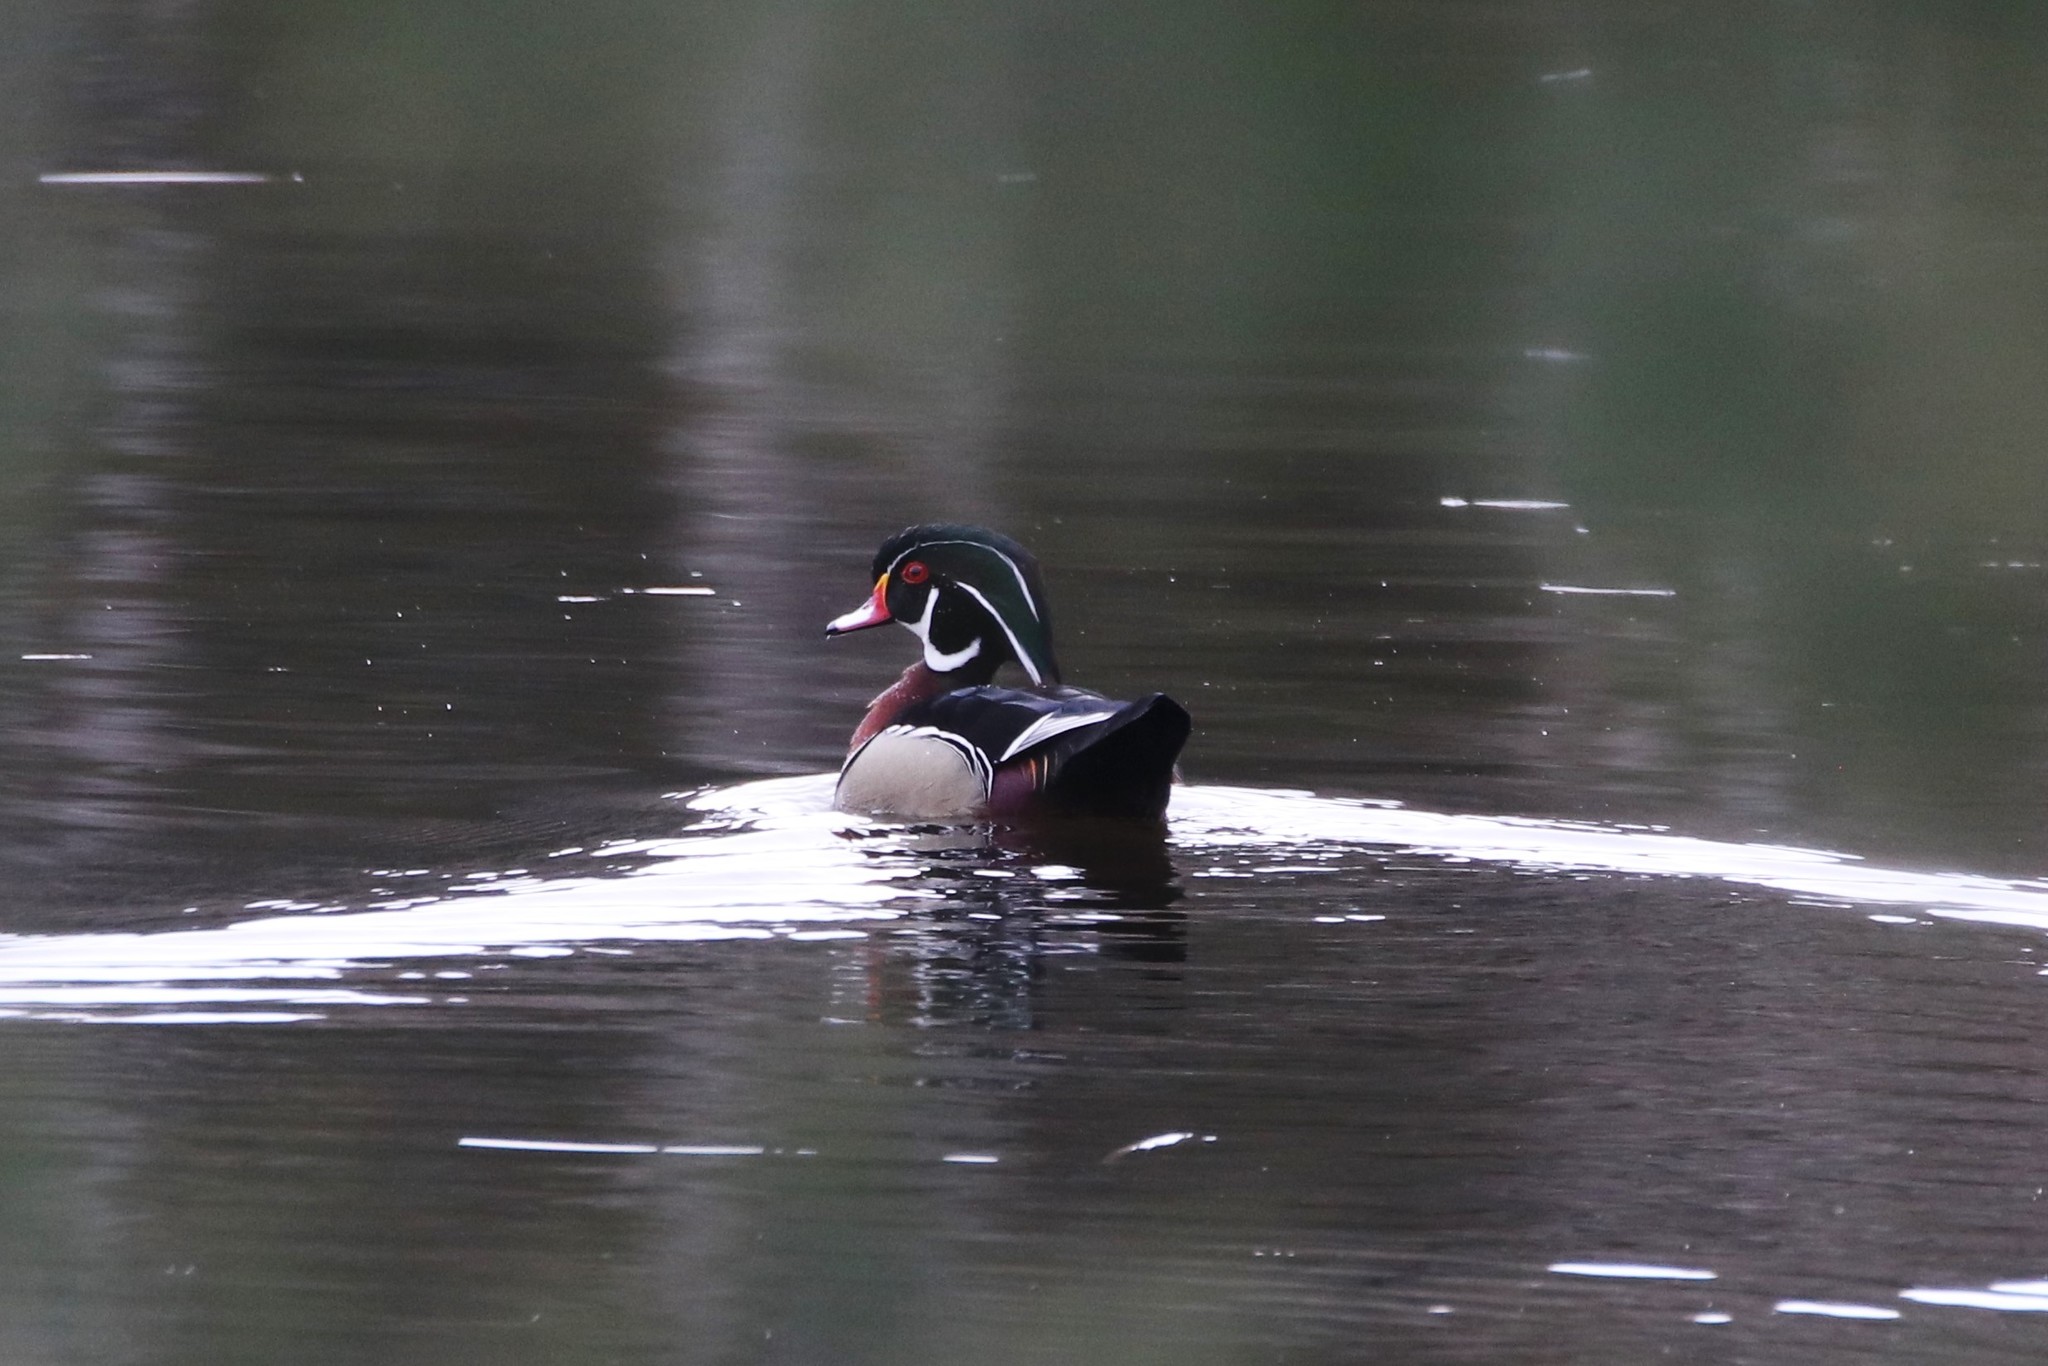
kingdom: Animalia
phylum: Chordata
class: Aves
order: Anseriformes
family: Anatidae
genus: Aix
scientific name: Aix sponsa
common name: Wood duck
